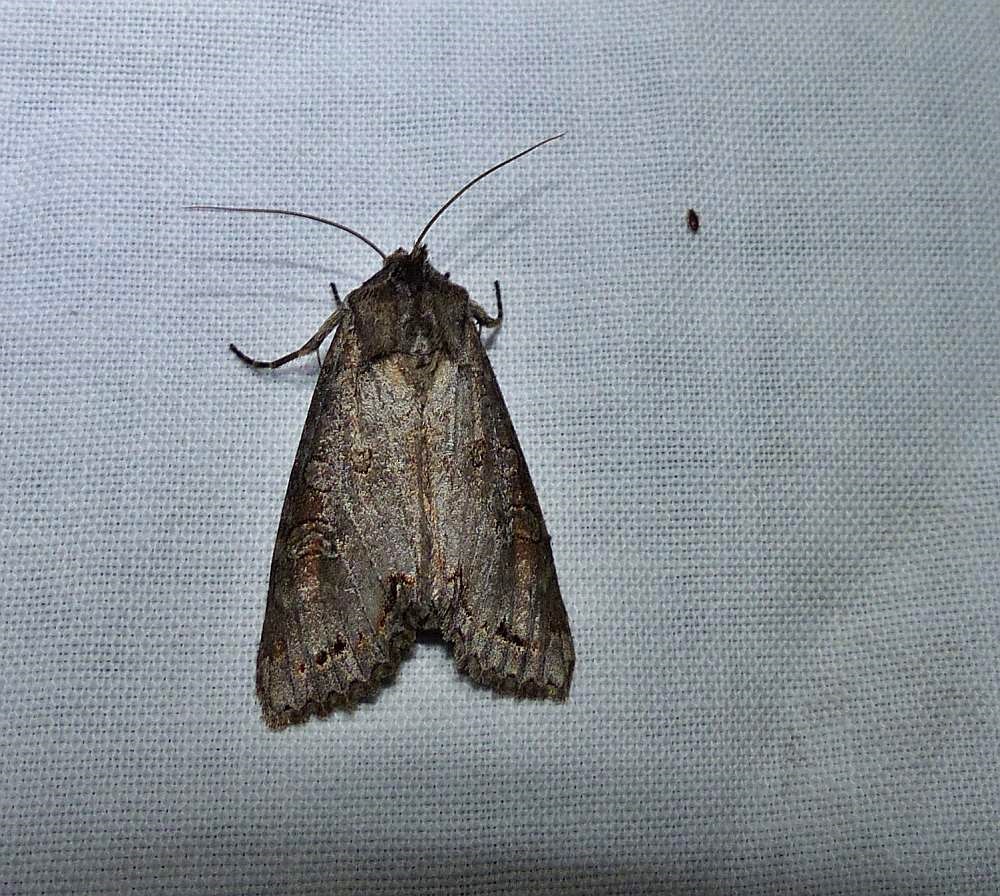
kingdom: Animalia
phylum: Arthropoda
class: Insecta
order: Lepidoptera
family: Noctuidae
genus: Polia
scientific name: Polia purpurissata
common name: Purple arches moth
